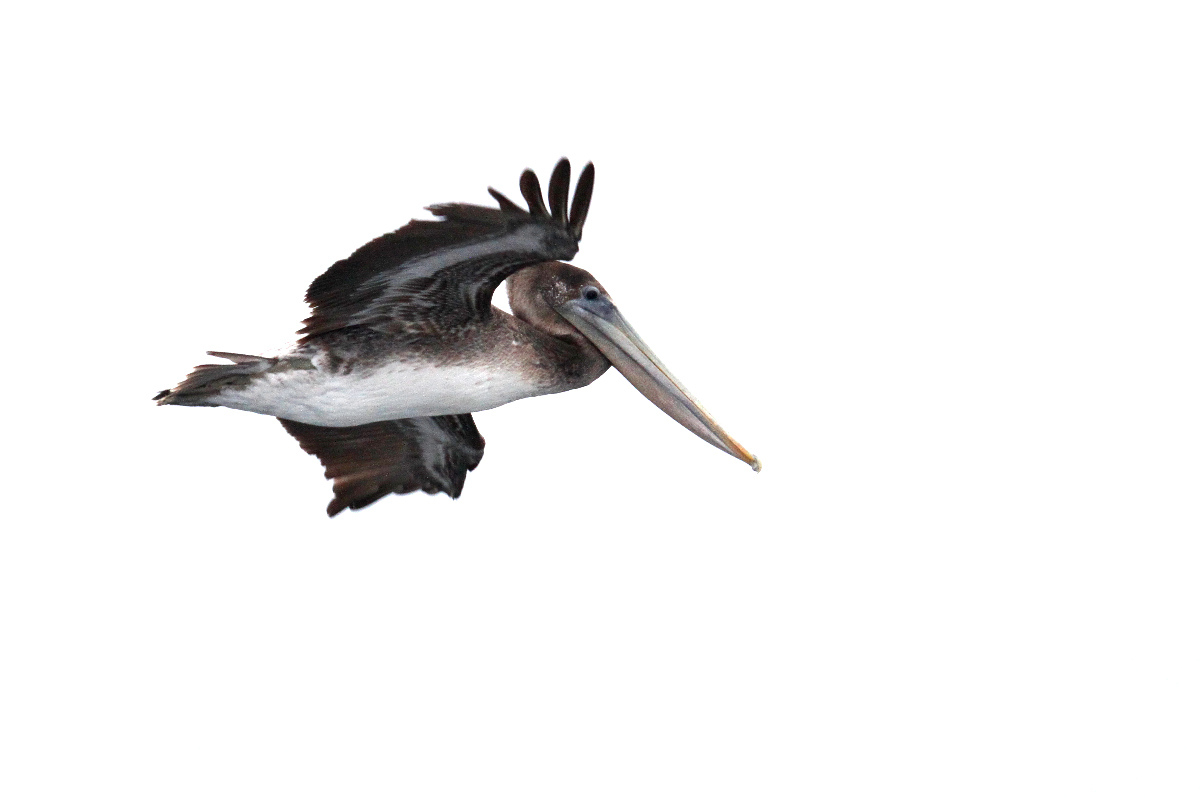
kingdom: Animalia
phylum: Chordata
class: Aves
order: Pelecaniformes
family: Pelecanidae
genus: Pelecanus
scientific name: Pelecanus occidentalis
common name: Brown pelican
